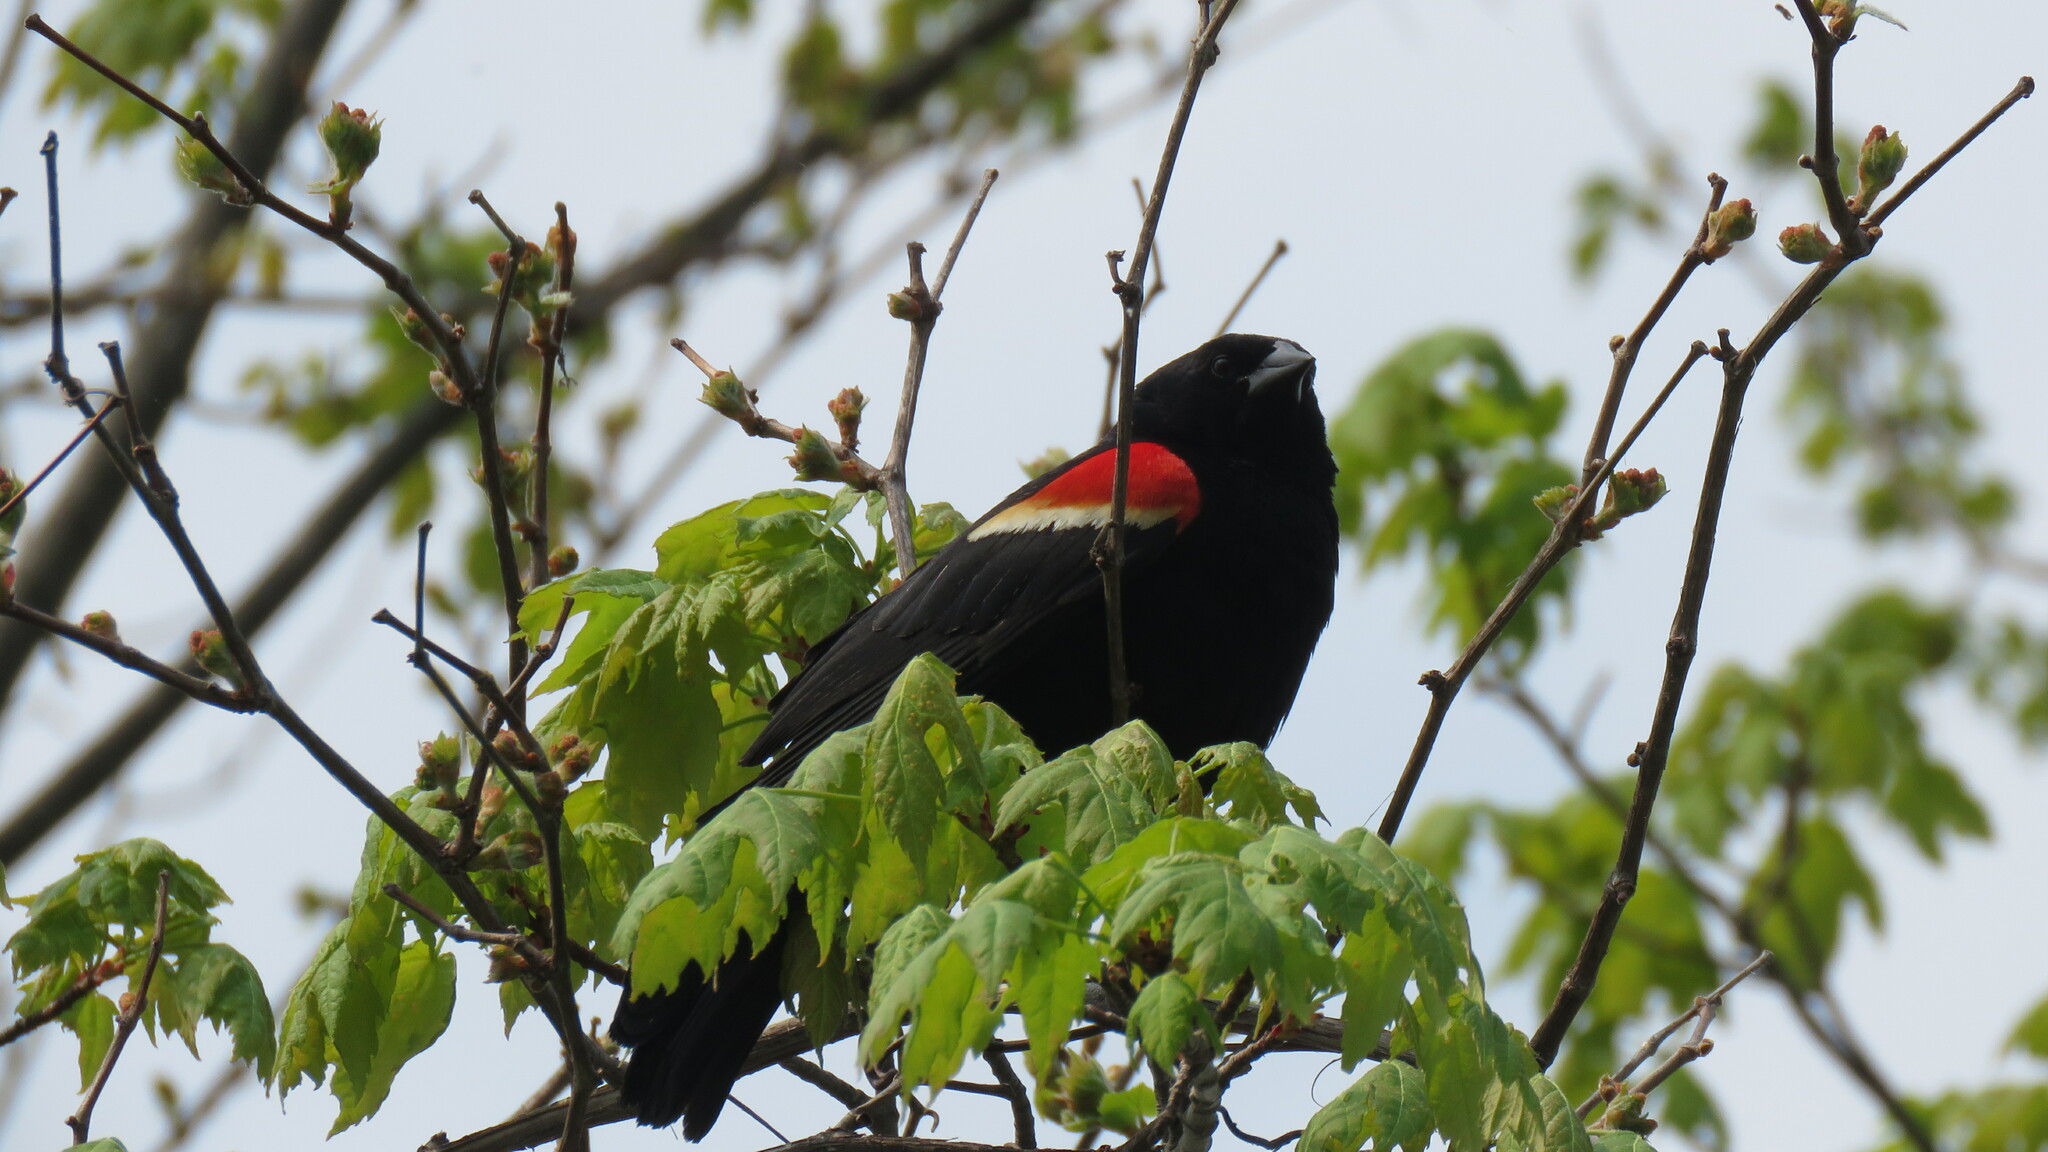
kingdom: Animalia
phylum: Chordata
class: Aves
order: Passeriformes
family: Icteridae
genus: Agelaius
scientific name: Agelaius phoeniceus
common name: Red-winged blackbird
